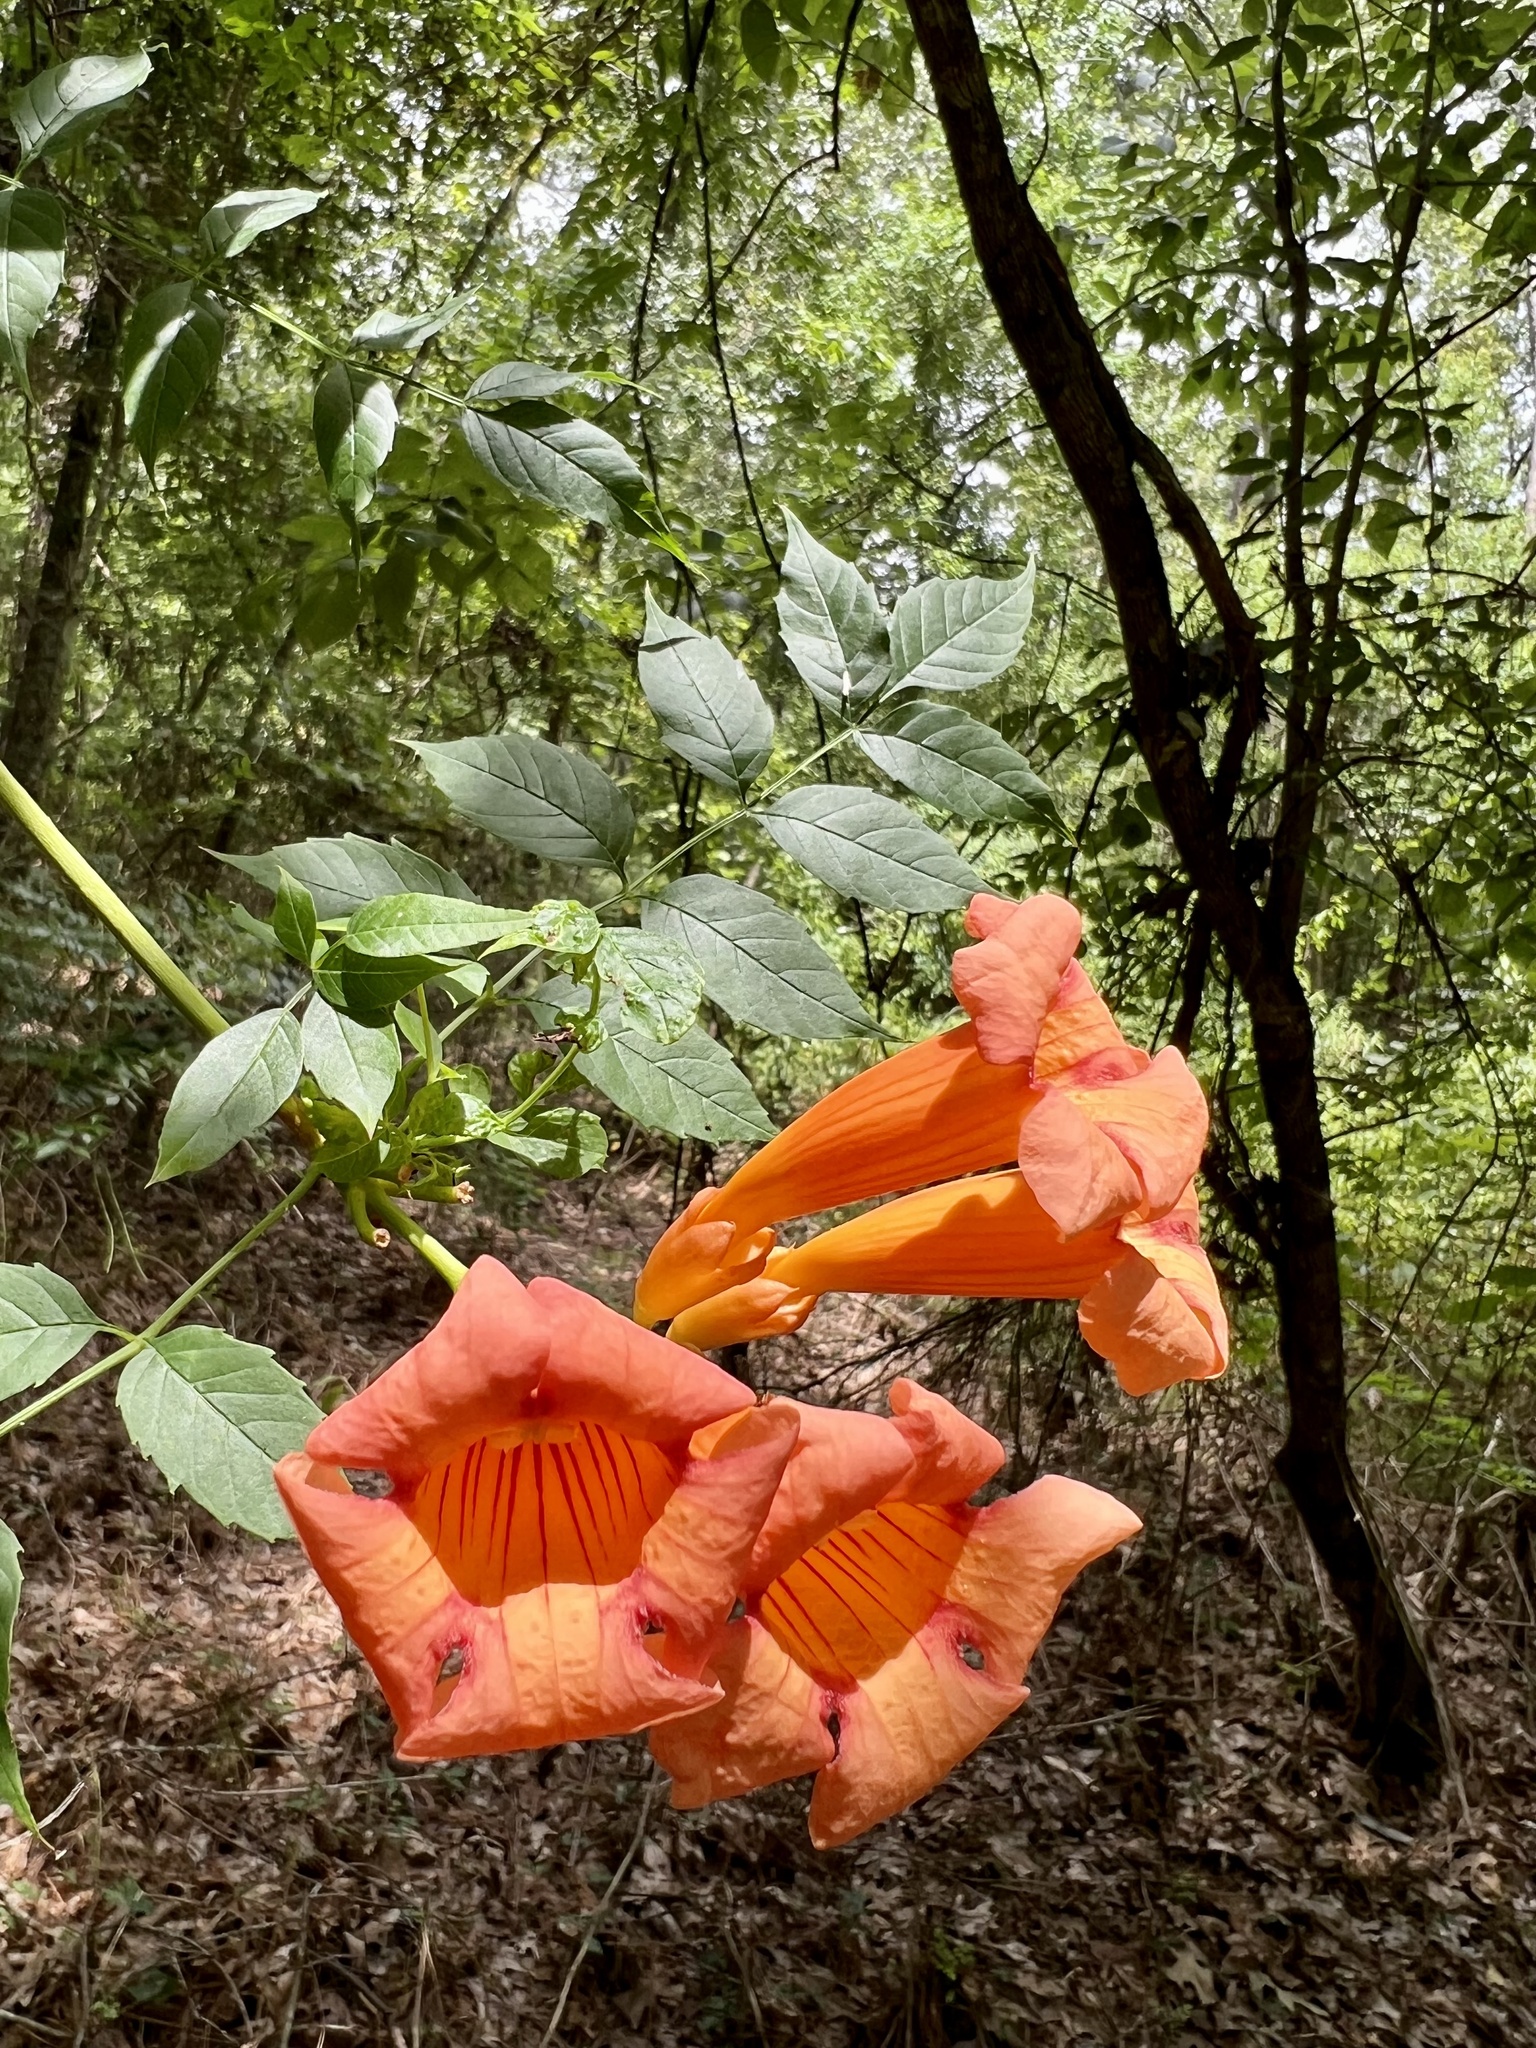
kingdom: Plantae
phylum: Tracheophyta
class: Magnoliopsida
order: Lamiales
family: Bignoniaceae
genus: Campsis
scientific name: Campsis radicans
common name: Trumpet-creeper
